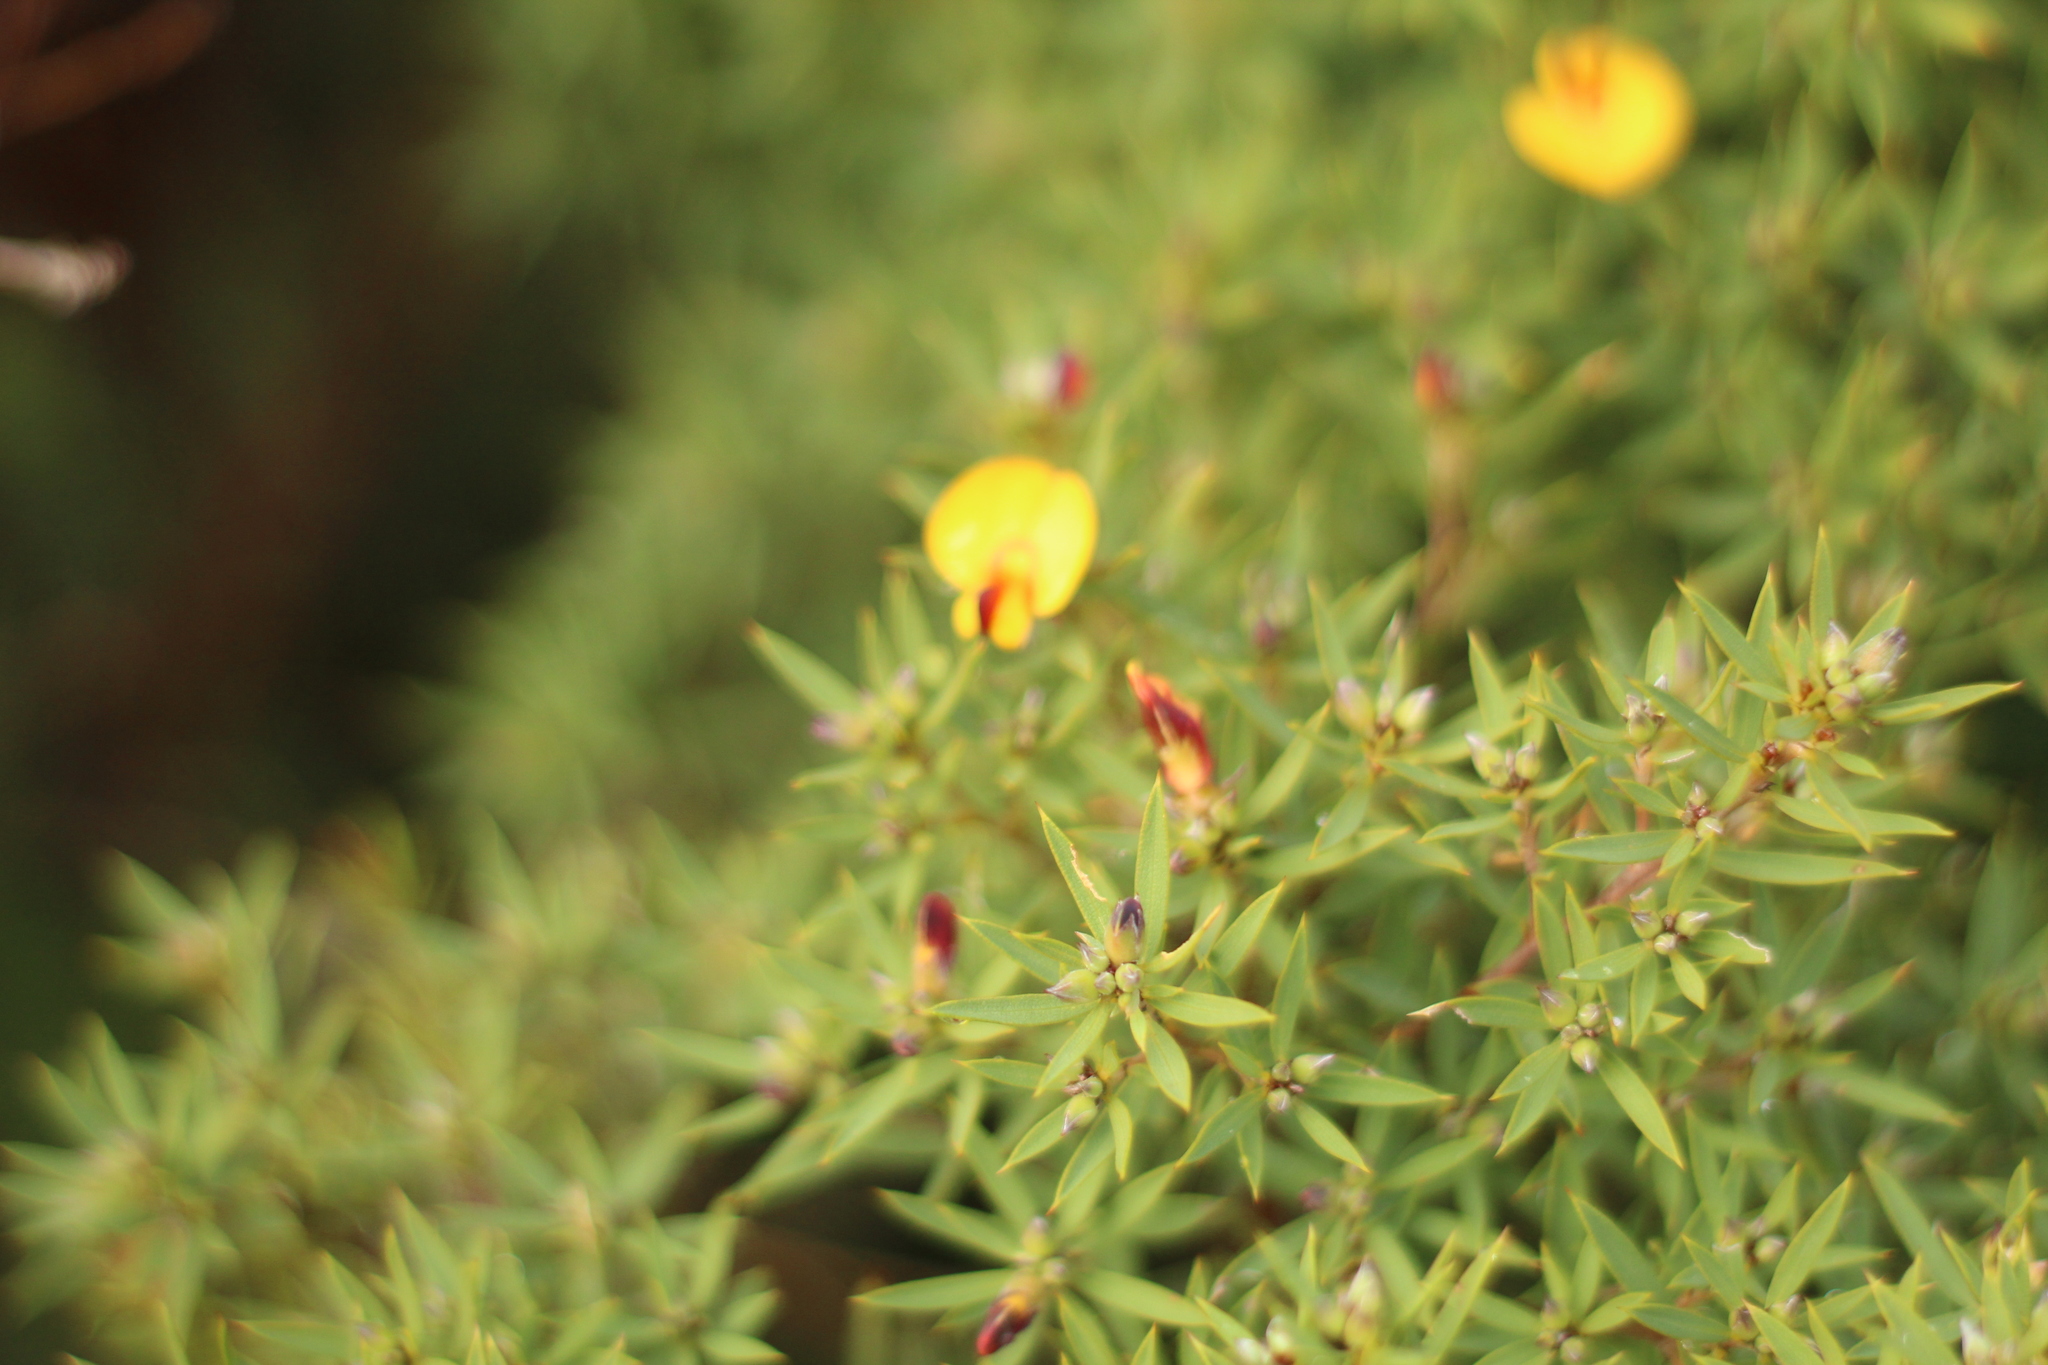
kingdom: Plantae
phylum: Tracheophyta
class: Magnoliopsida
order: Fabales
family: Fabaceae
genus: Pultenaea
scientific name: Pultenaea reticulata
